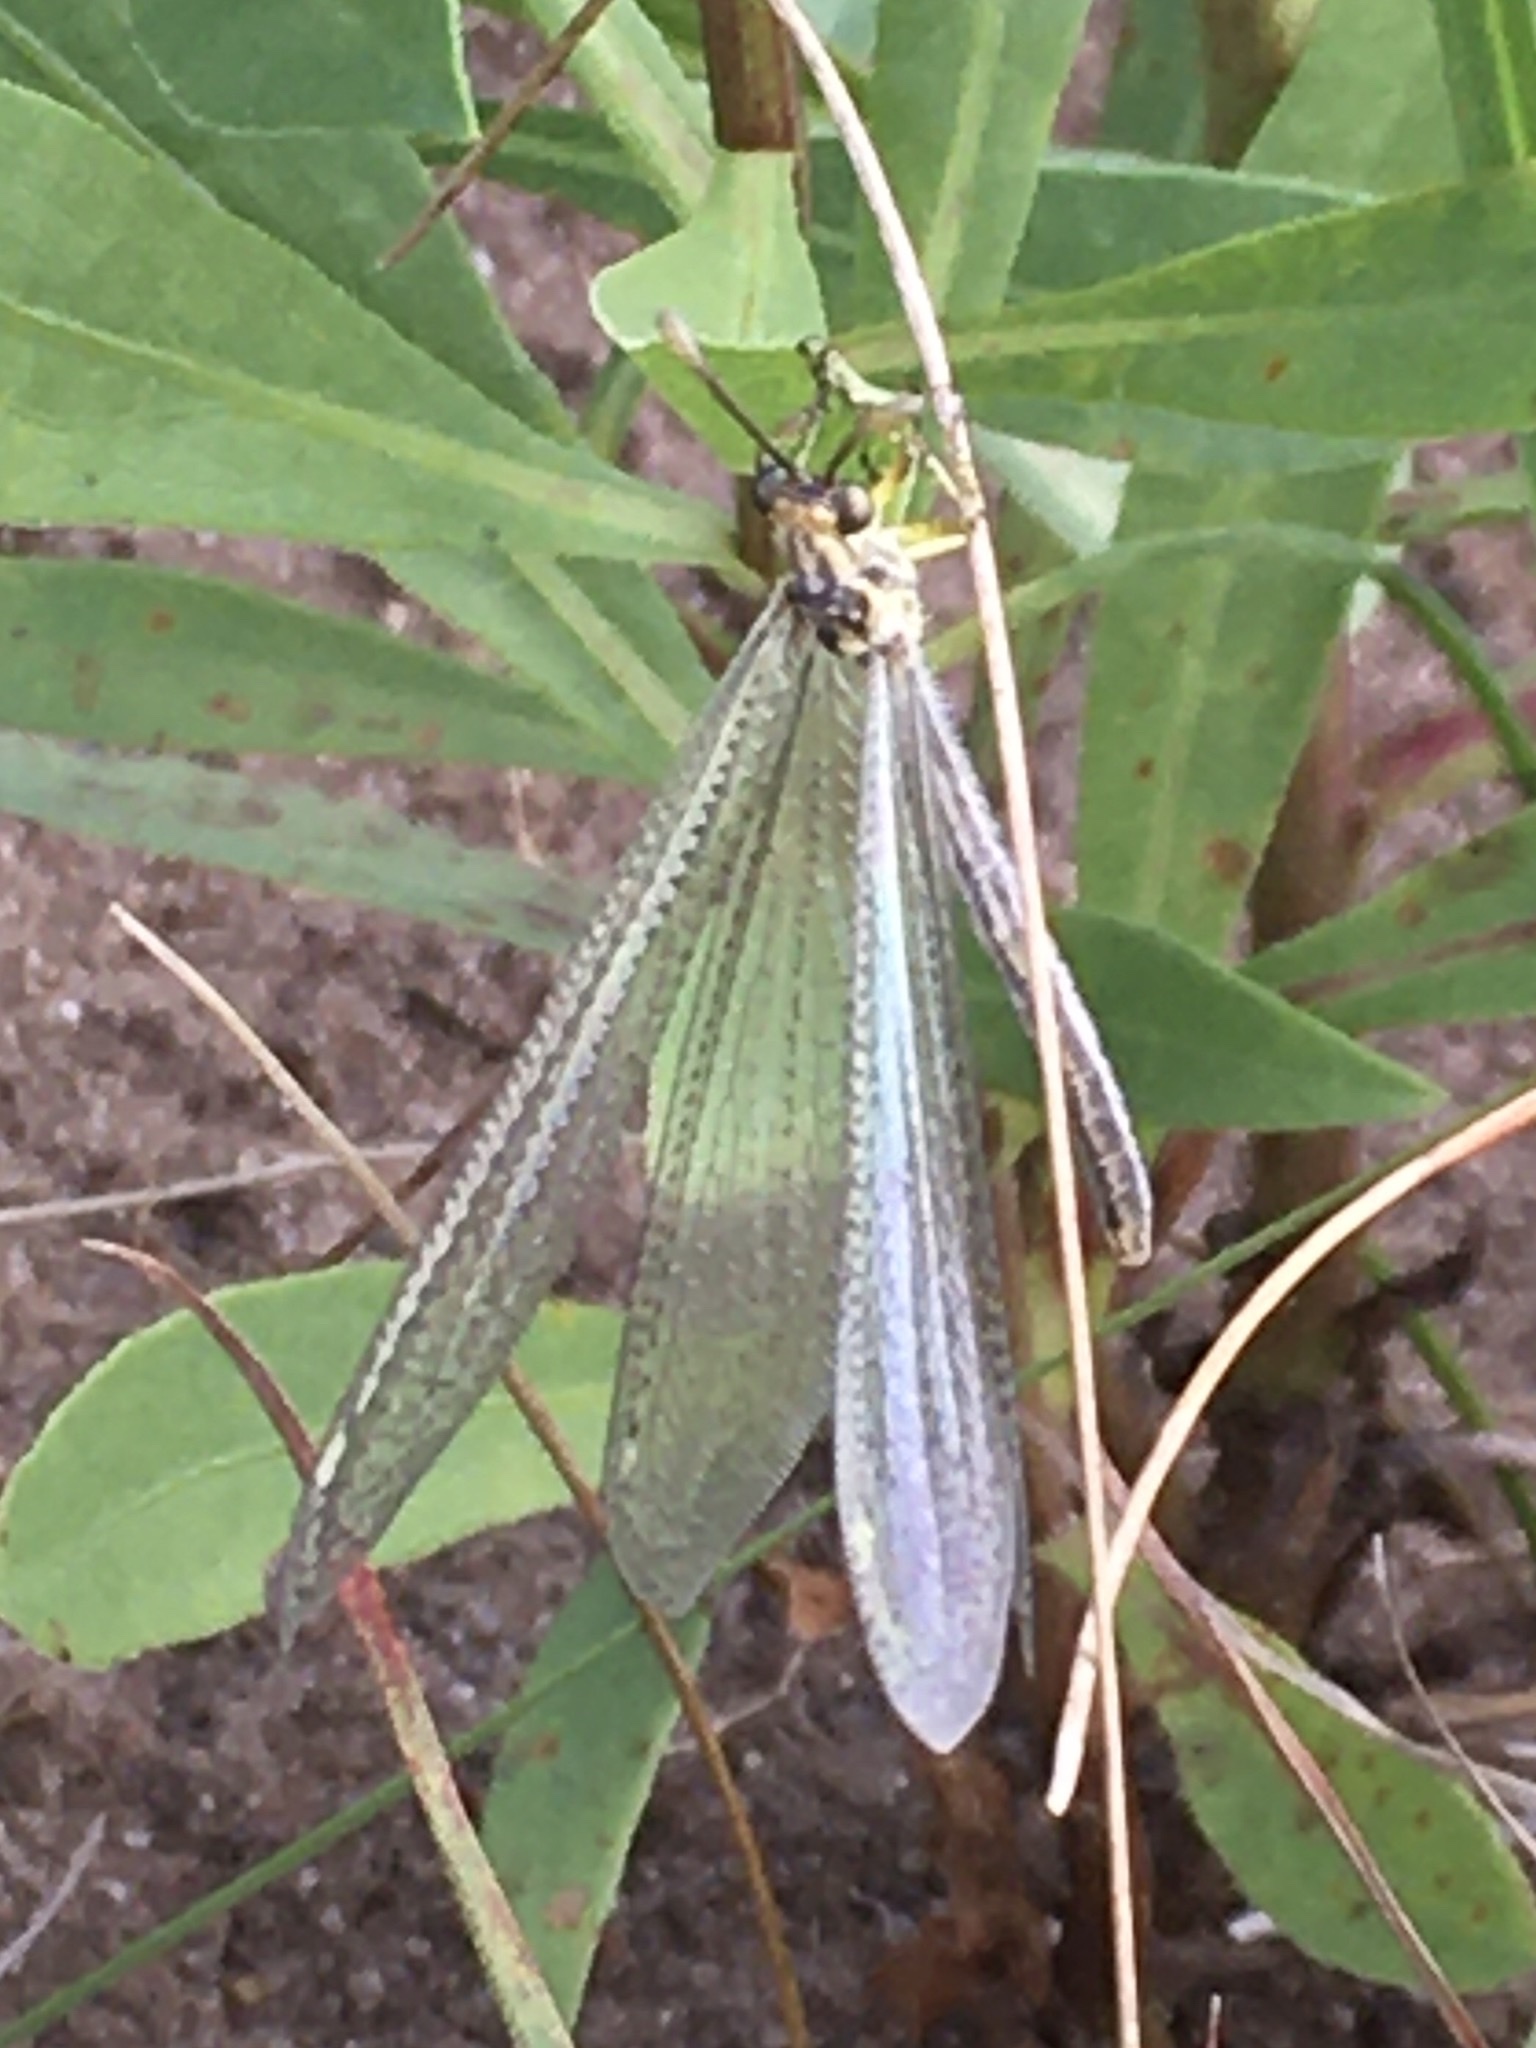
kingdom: Animalia
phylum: Arthropoda
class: Insecta
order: Neuroptera
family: Myrmeleontidae
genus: Brachynemurus
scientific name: Brachynemurus abdominalis
